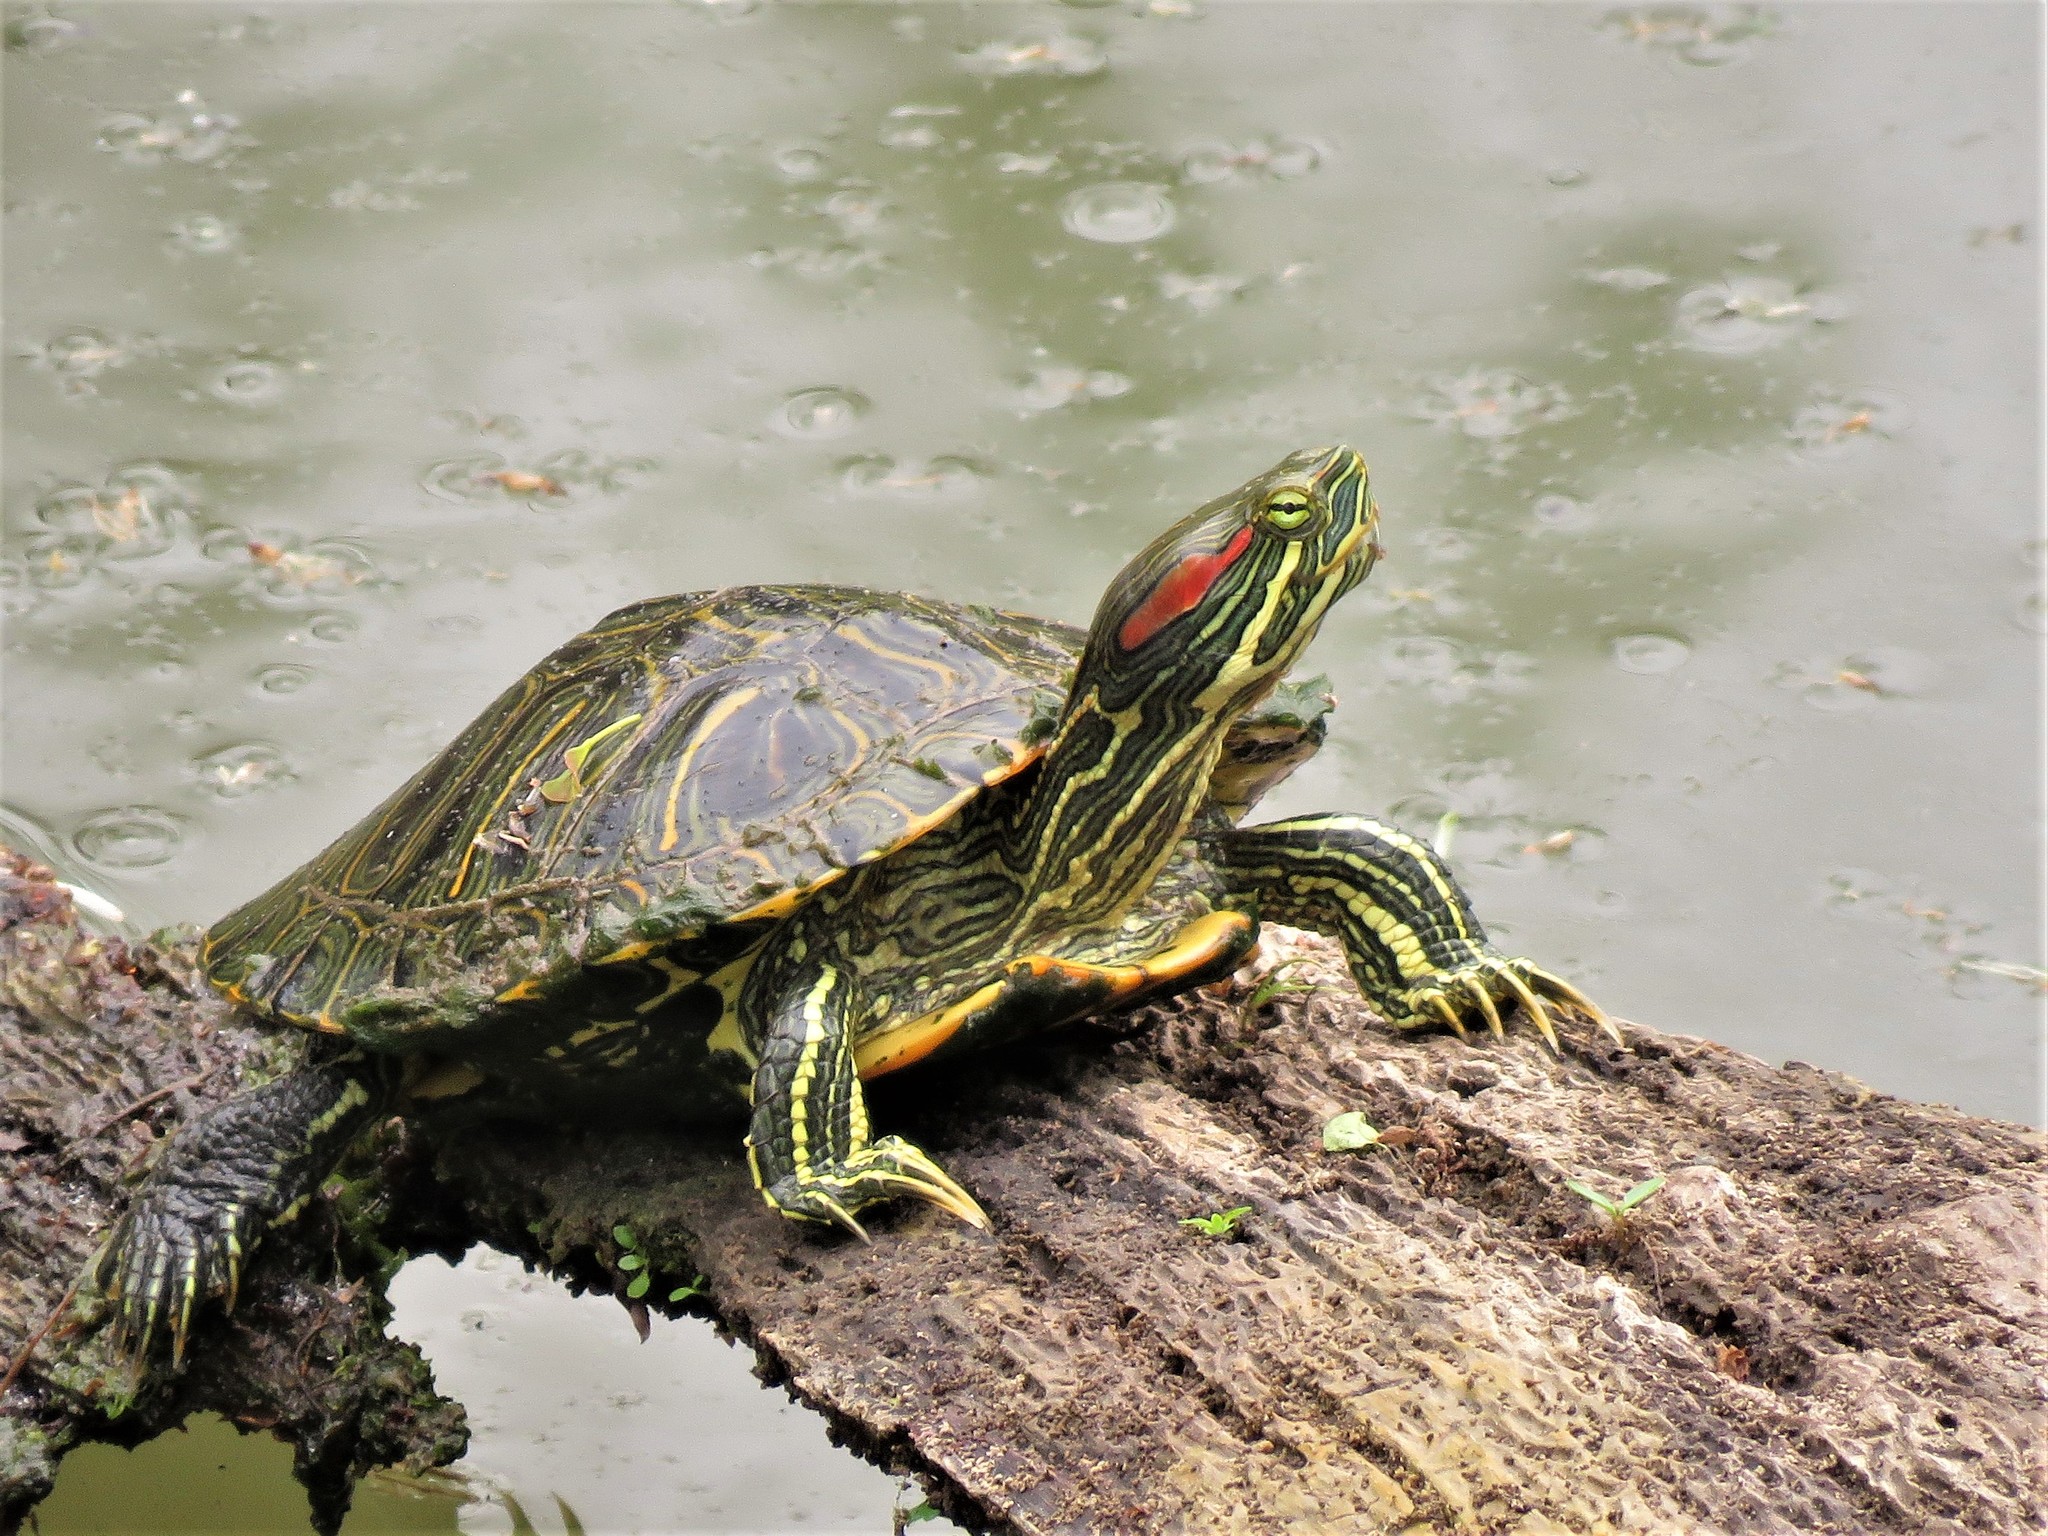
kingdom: Animalia
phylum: Chordata
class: Testudines
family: Emydidae
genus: Trachemys
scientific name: Trachemys scripta
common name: Slider
